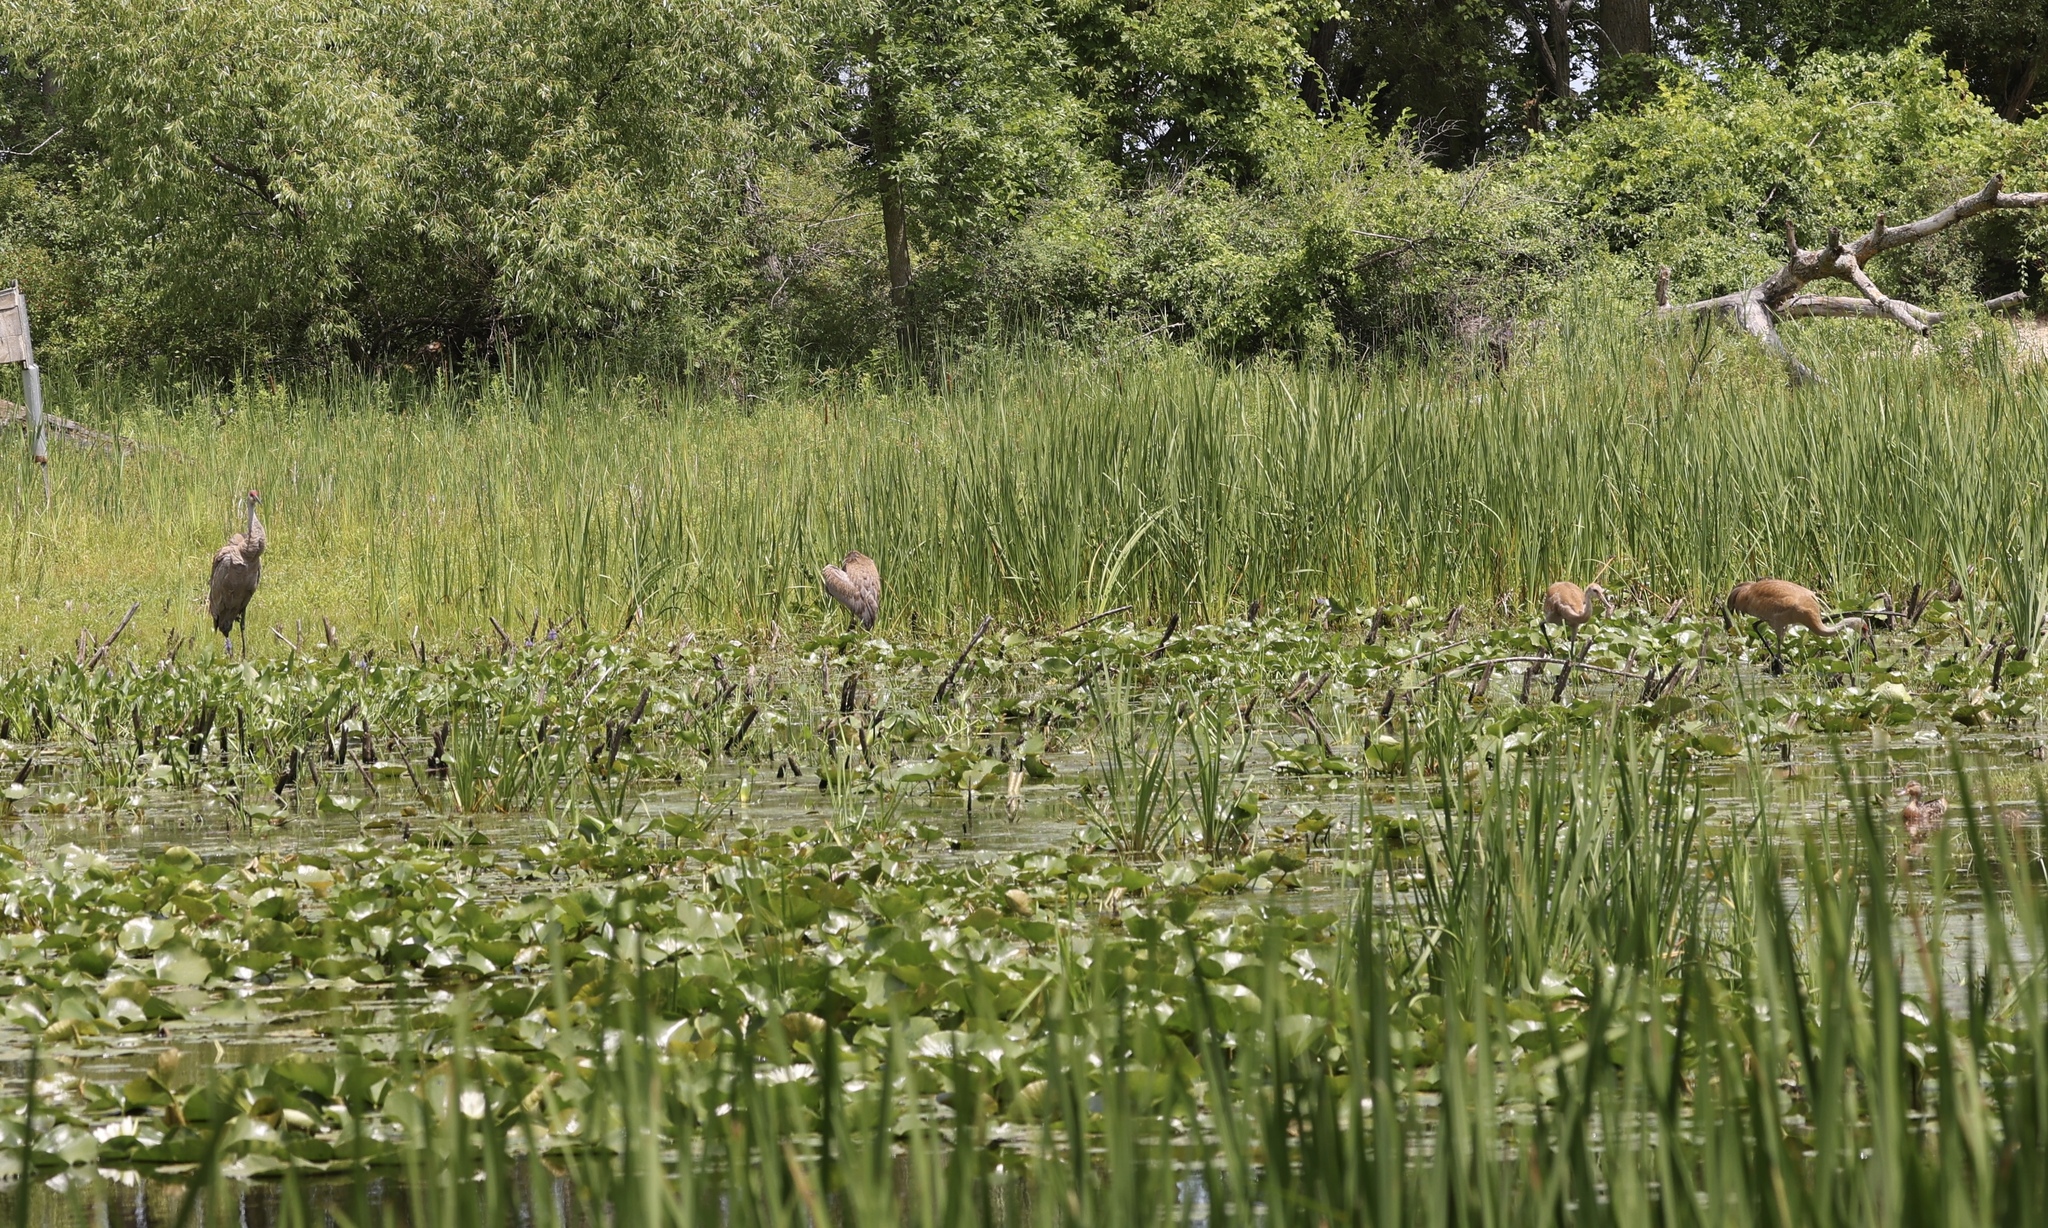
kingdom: Animalia
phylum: Chordata
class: Aves
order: Gruiformes
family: Gruidae
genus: Grus
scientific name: Grus canadensis
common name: Sandhill crane
